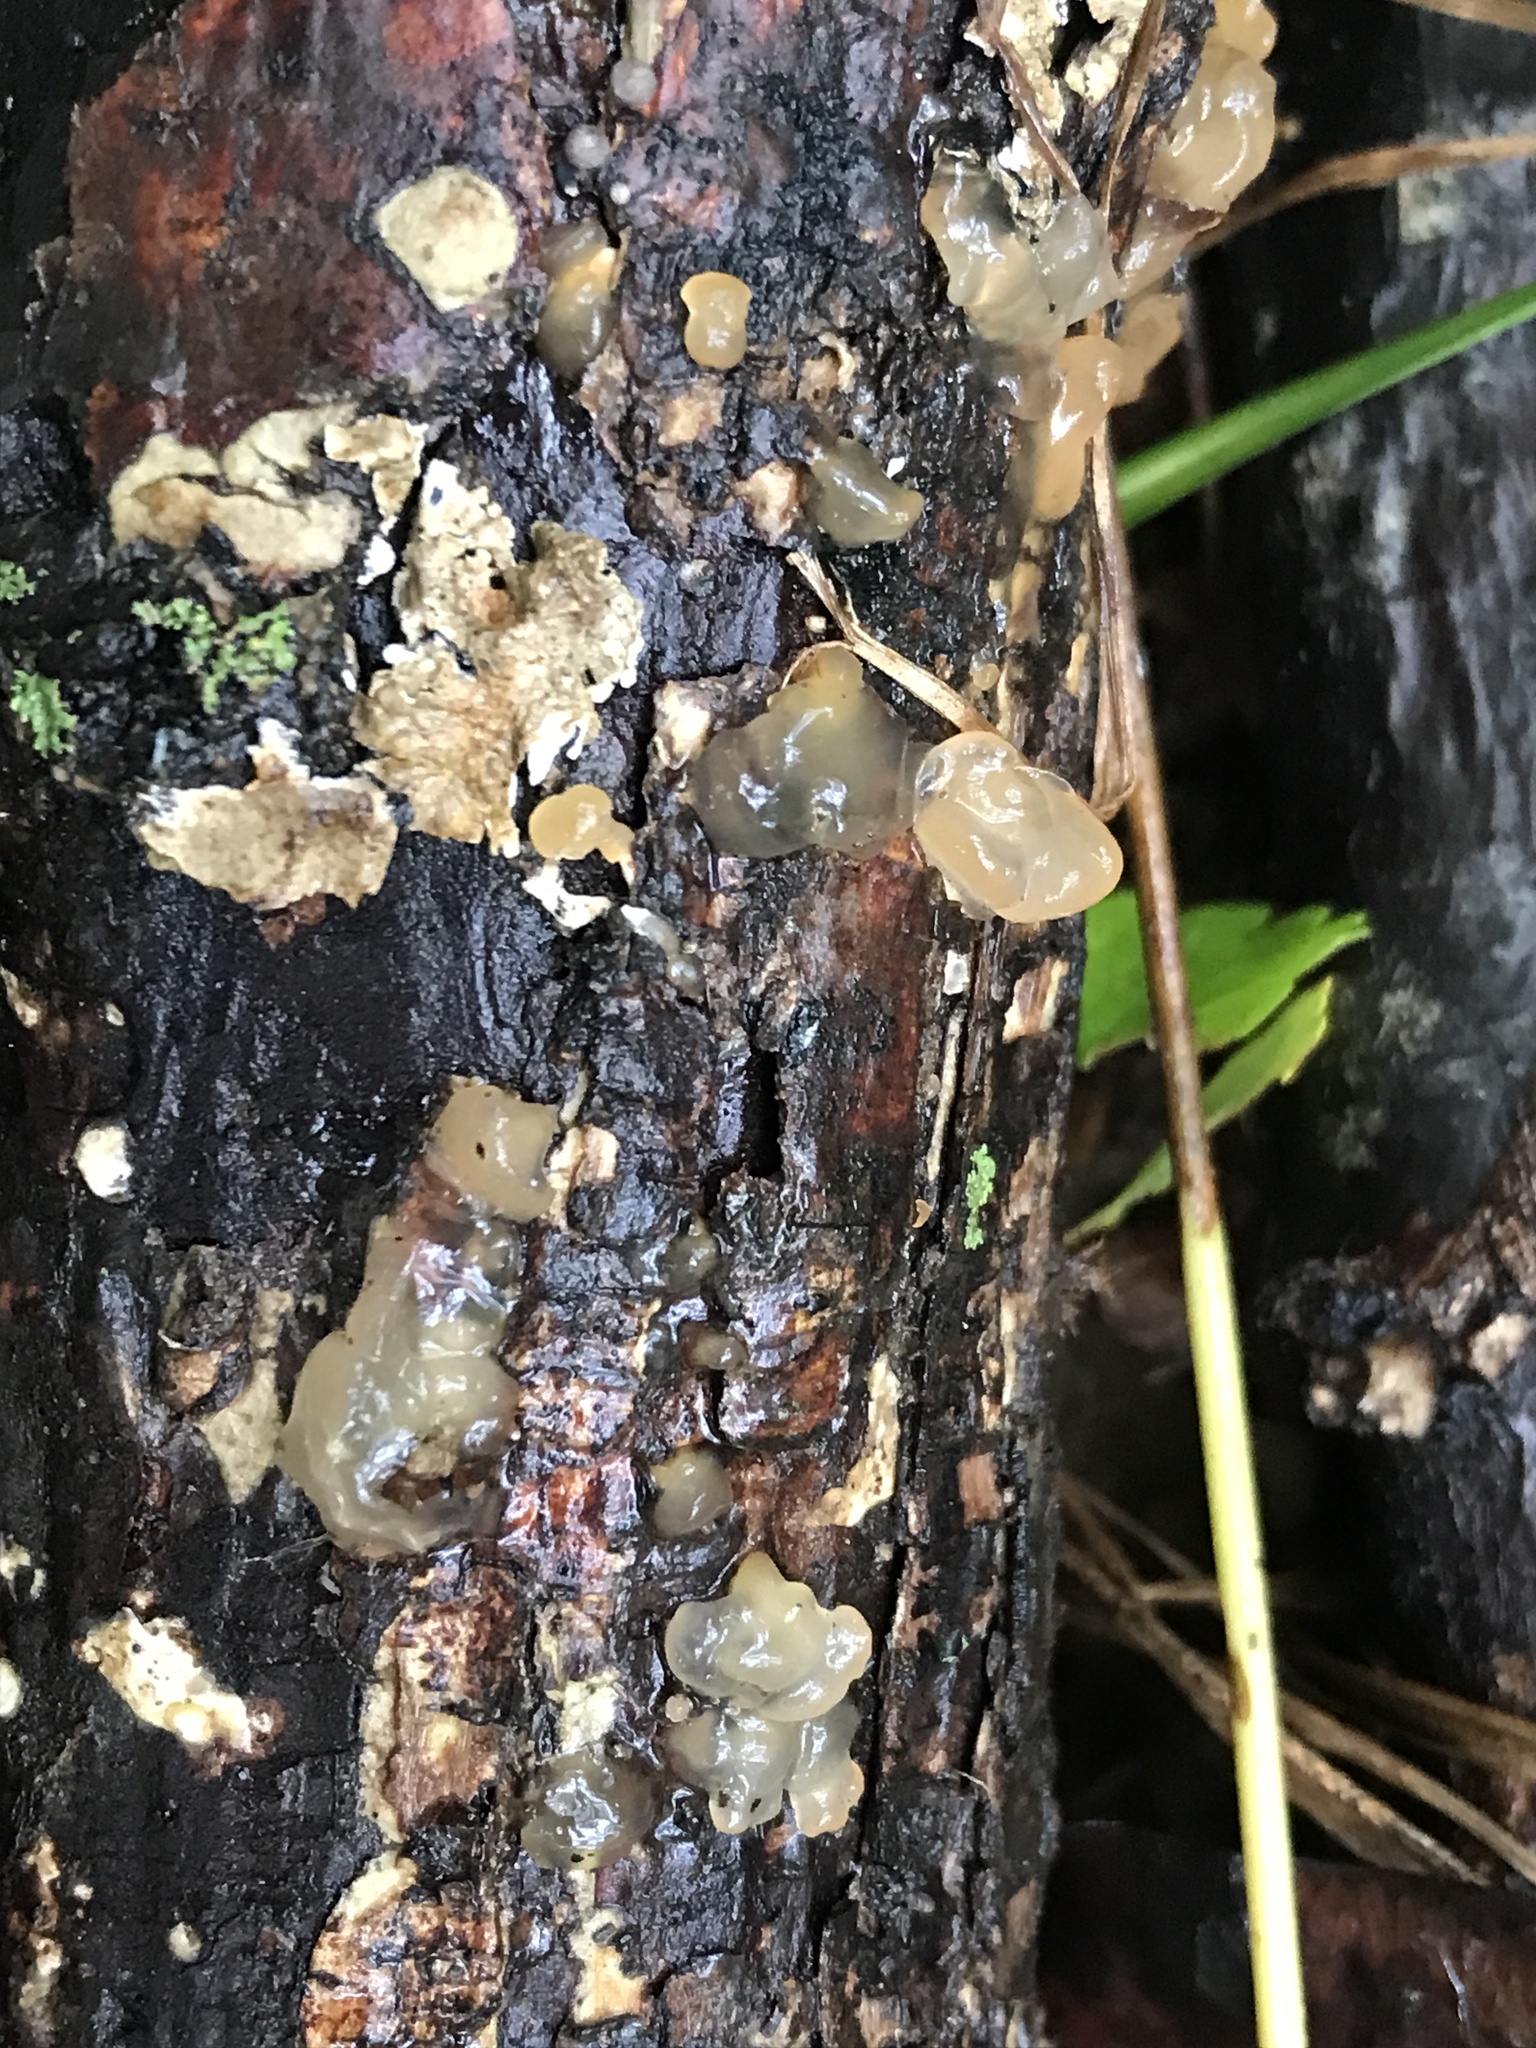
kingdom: Fungi
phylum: Basidiomycota
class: Agaricomycetes
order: Auriculariales
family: Hyaloriaceae
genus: Myxarium
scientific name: Myxarium nucleatum
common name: Crystal brain fungus
